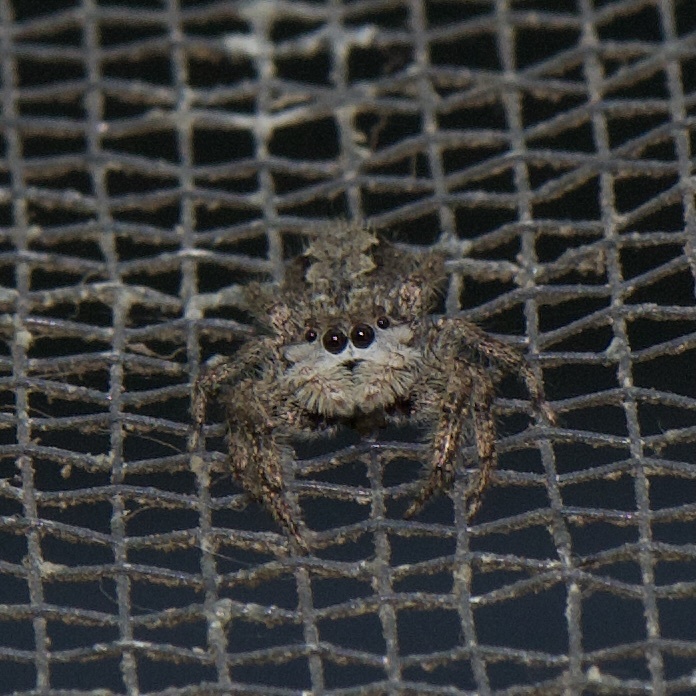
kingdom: Animalia
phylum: Arthropoda
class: Arachnida
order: Araneae
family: Salticidae
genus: Platycryptus
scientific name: Platycryptus undatus
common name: Tan jumping spider
